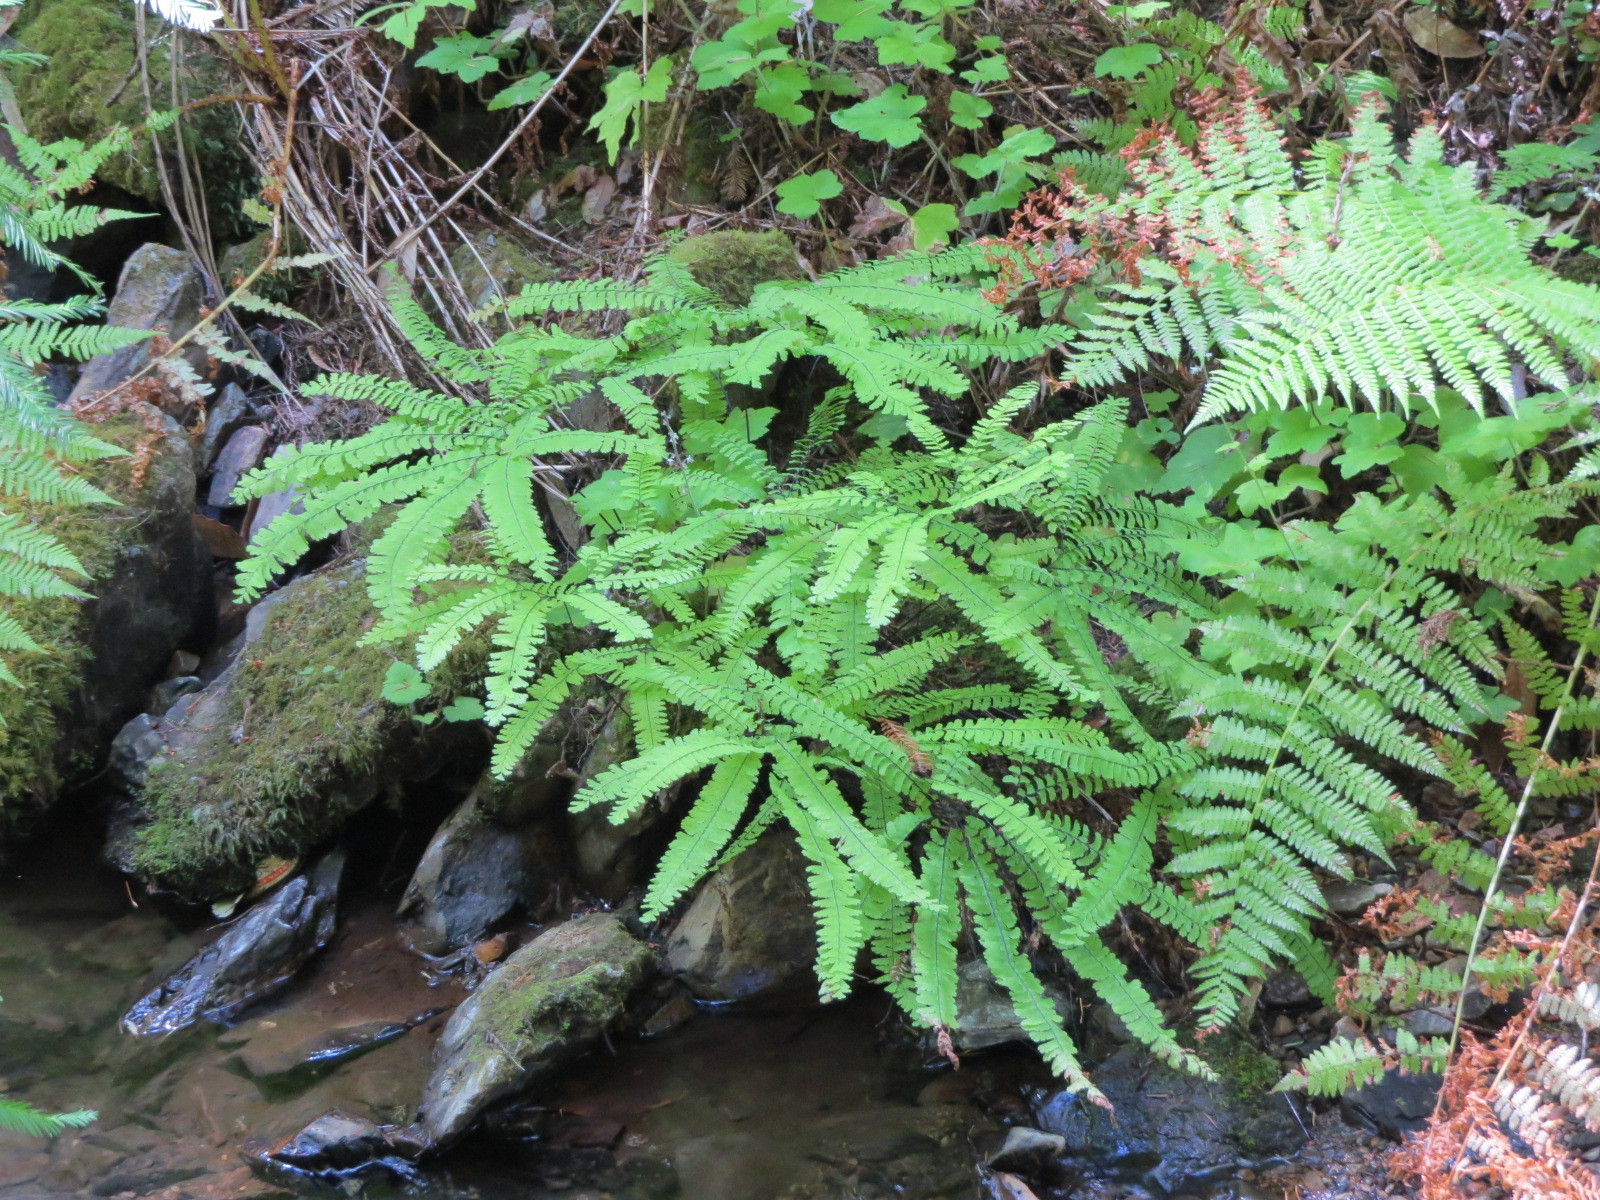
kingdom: Plantae
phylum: Tracheophyta
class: Polypodiopsida
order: Polypodiales
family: Pteridaceae
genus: Adiantum
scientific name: Adiantum aleuticum
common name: Aleutian maidenhair fern
